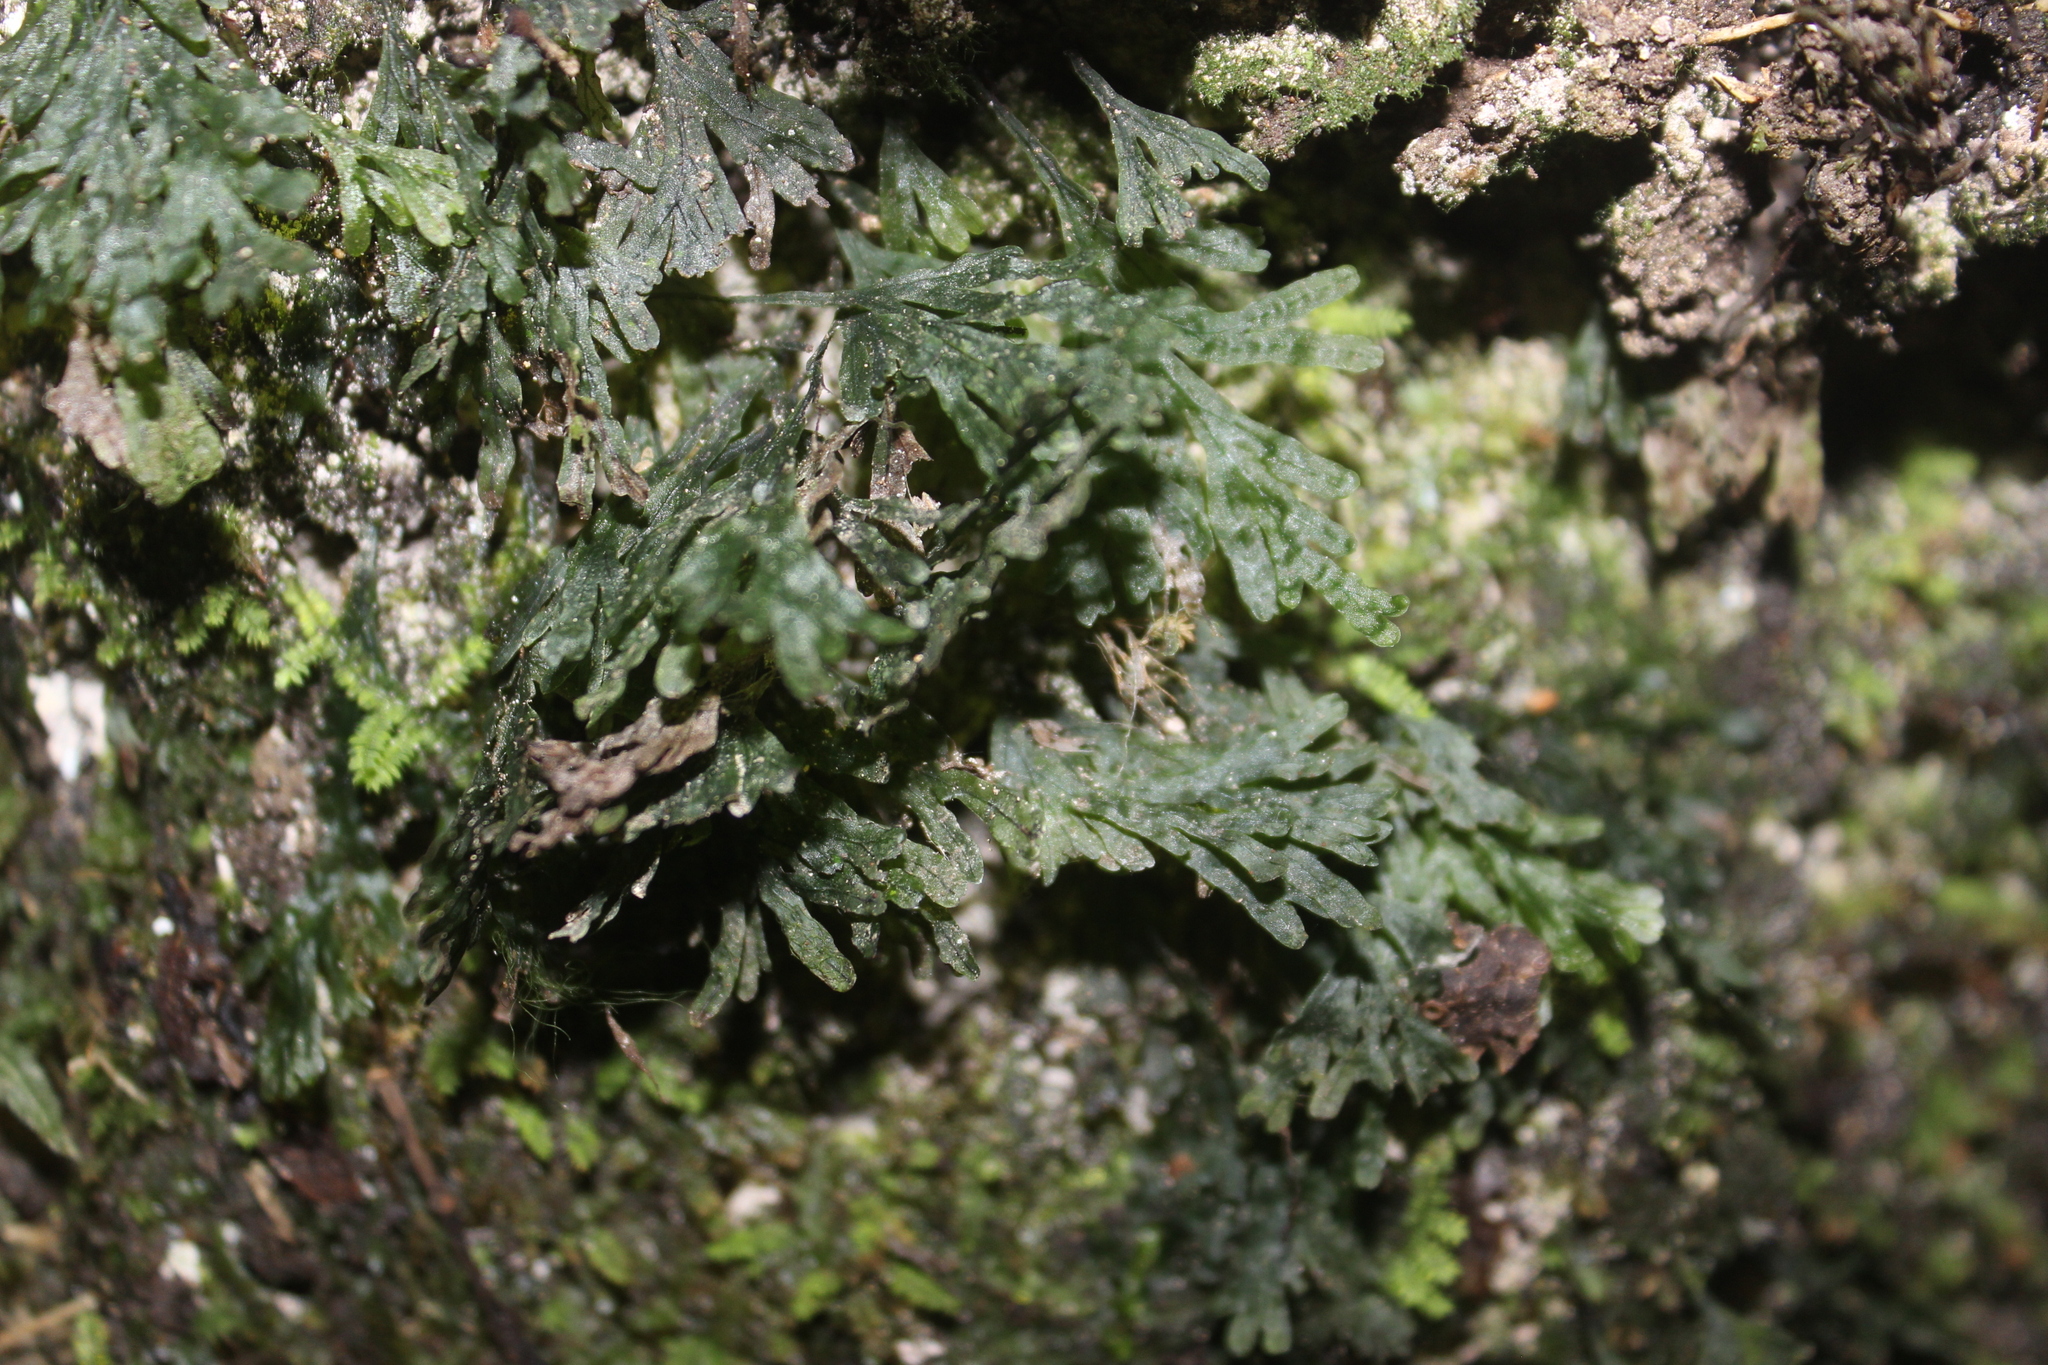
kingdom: Plantae
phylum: Tracheophyta
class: Polypodiopsida
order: Hymenophyllales
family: Hymenophyllaceae
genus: Polyphlebium
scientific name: Polyphlebium endlicherianum
